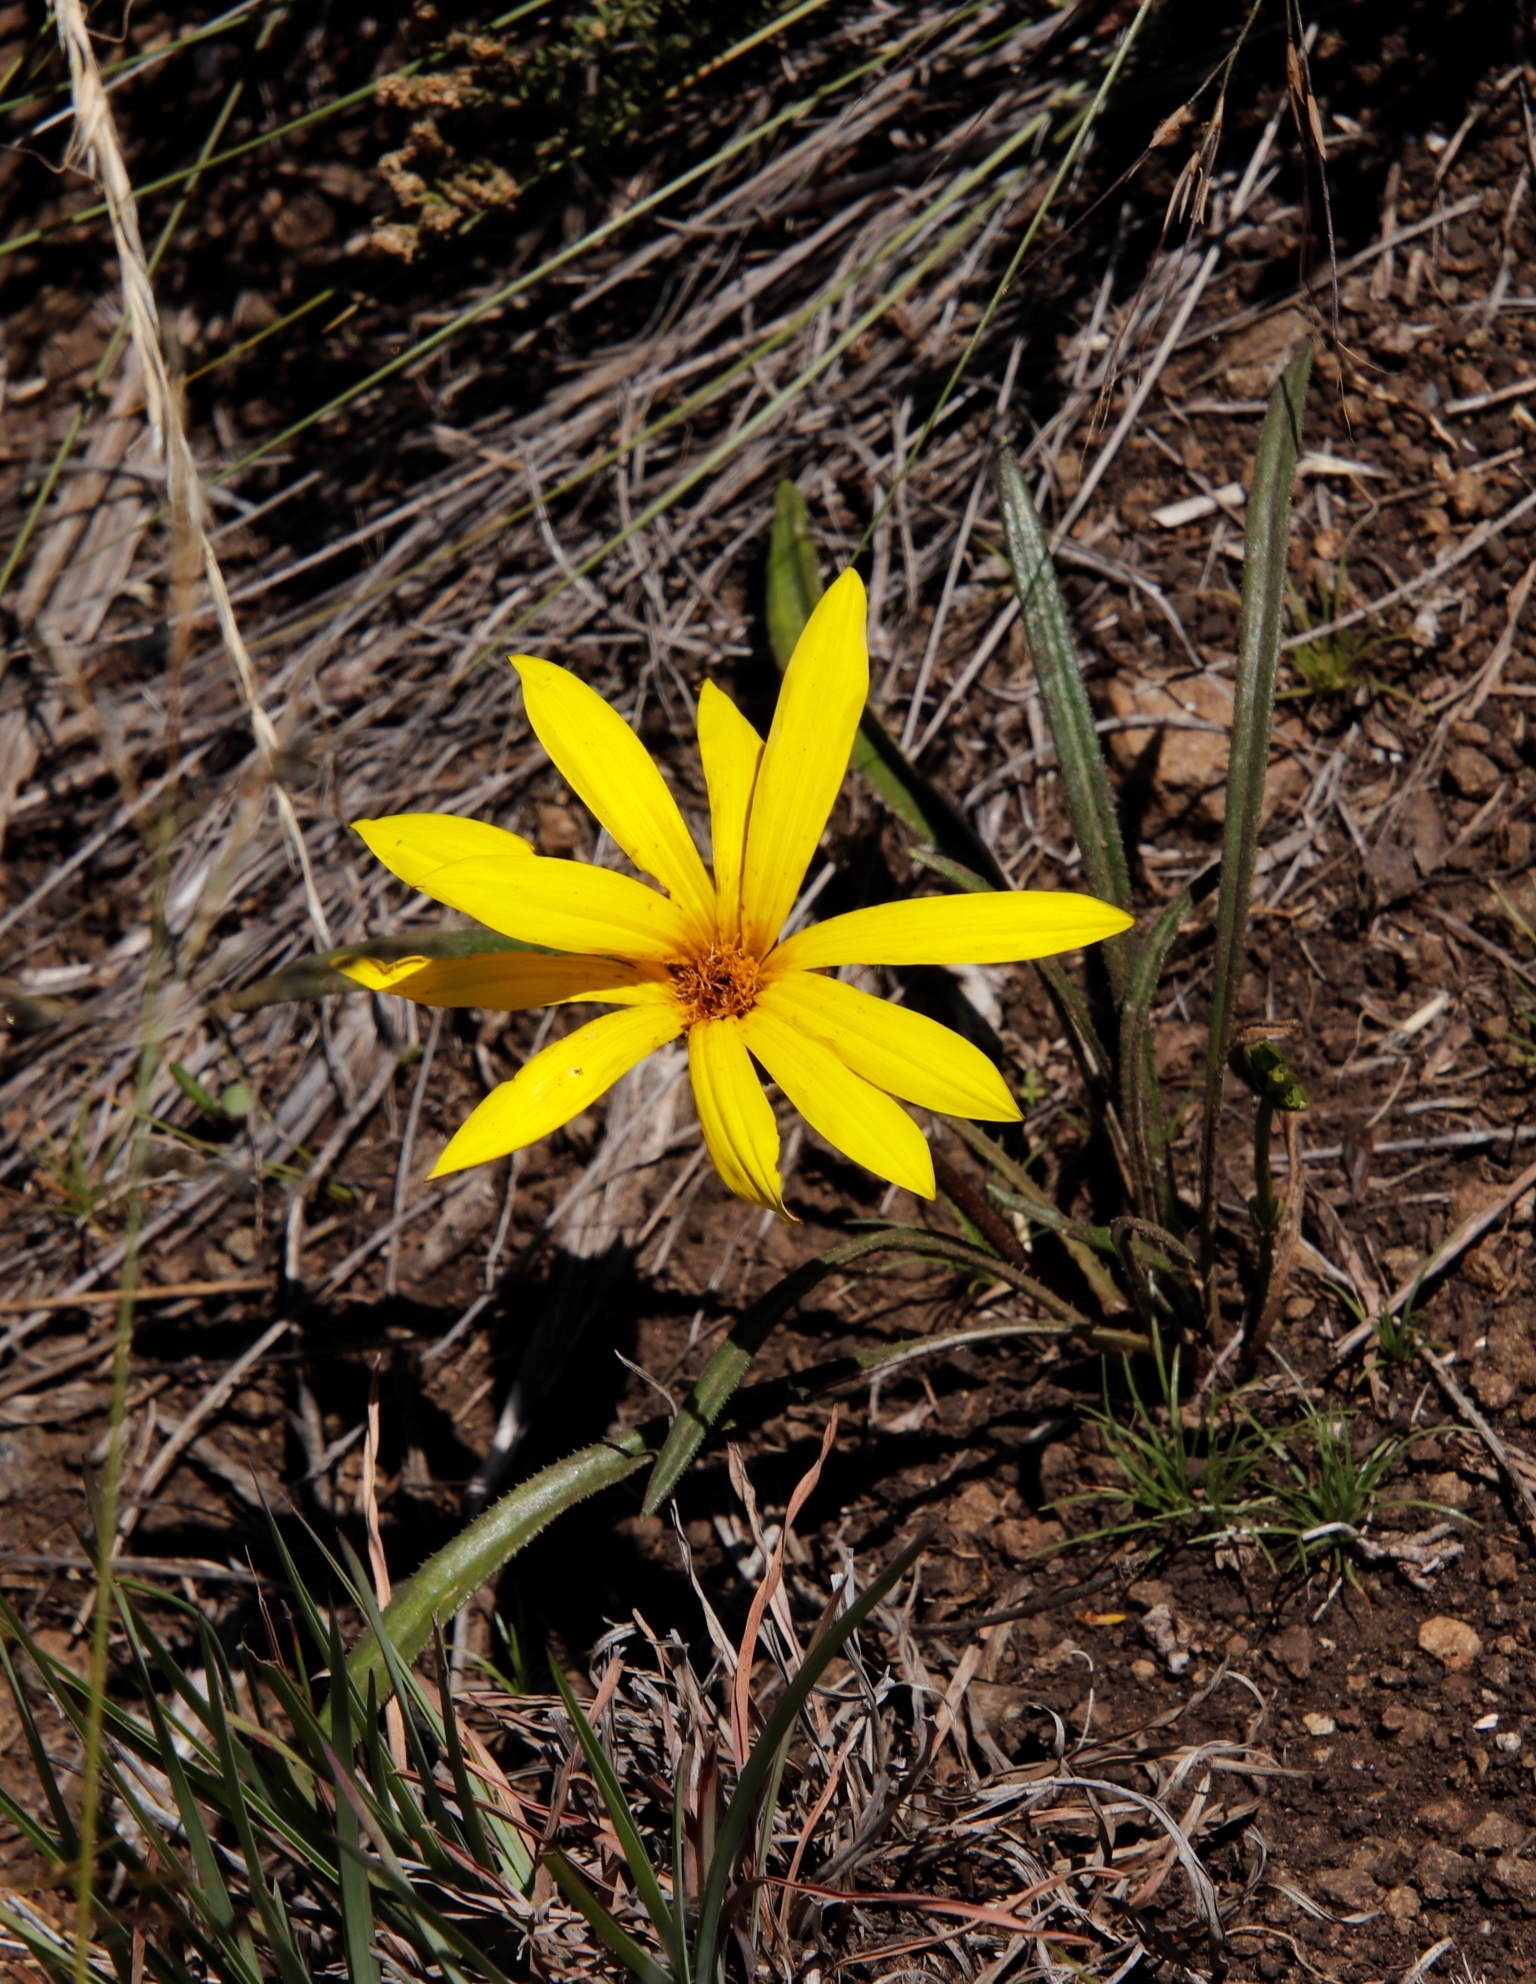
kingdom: Plantae
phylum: Tracheophyta
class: Magnoliopsida
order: Asterales
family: Asteraceae
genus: Gazania
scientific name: Gazania krebsiana
